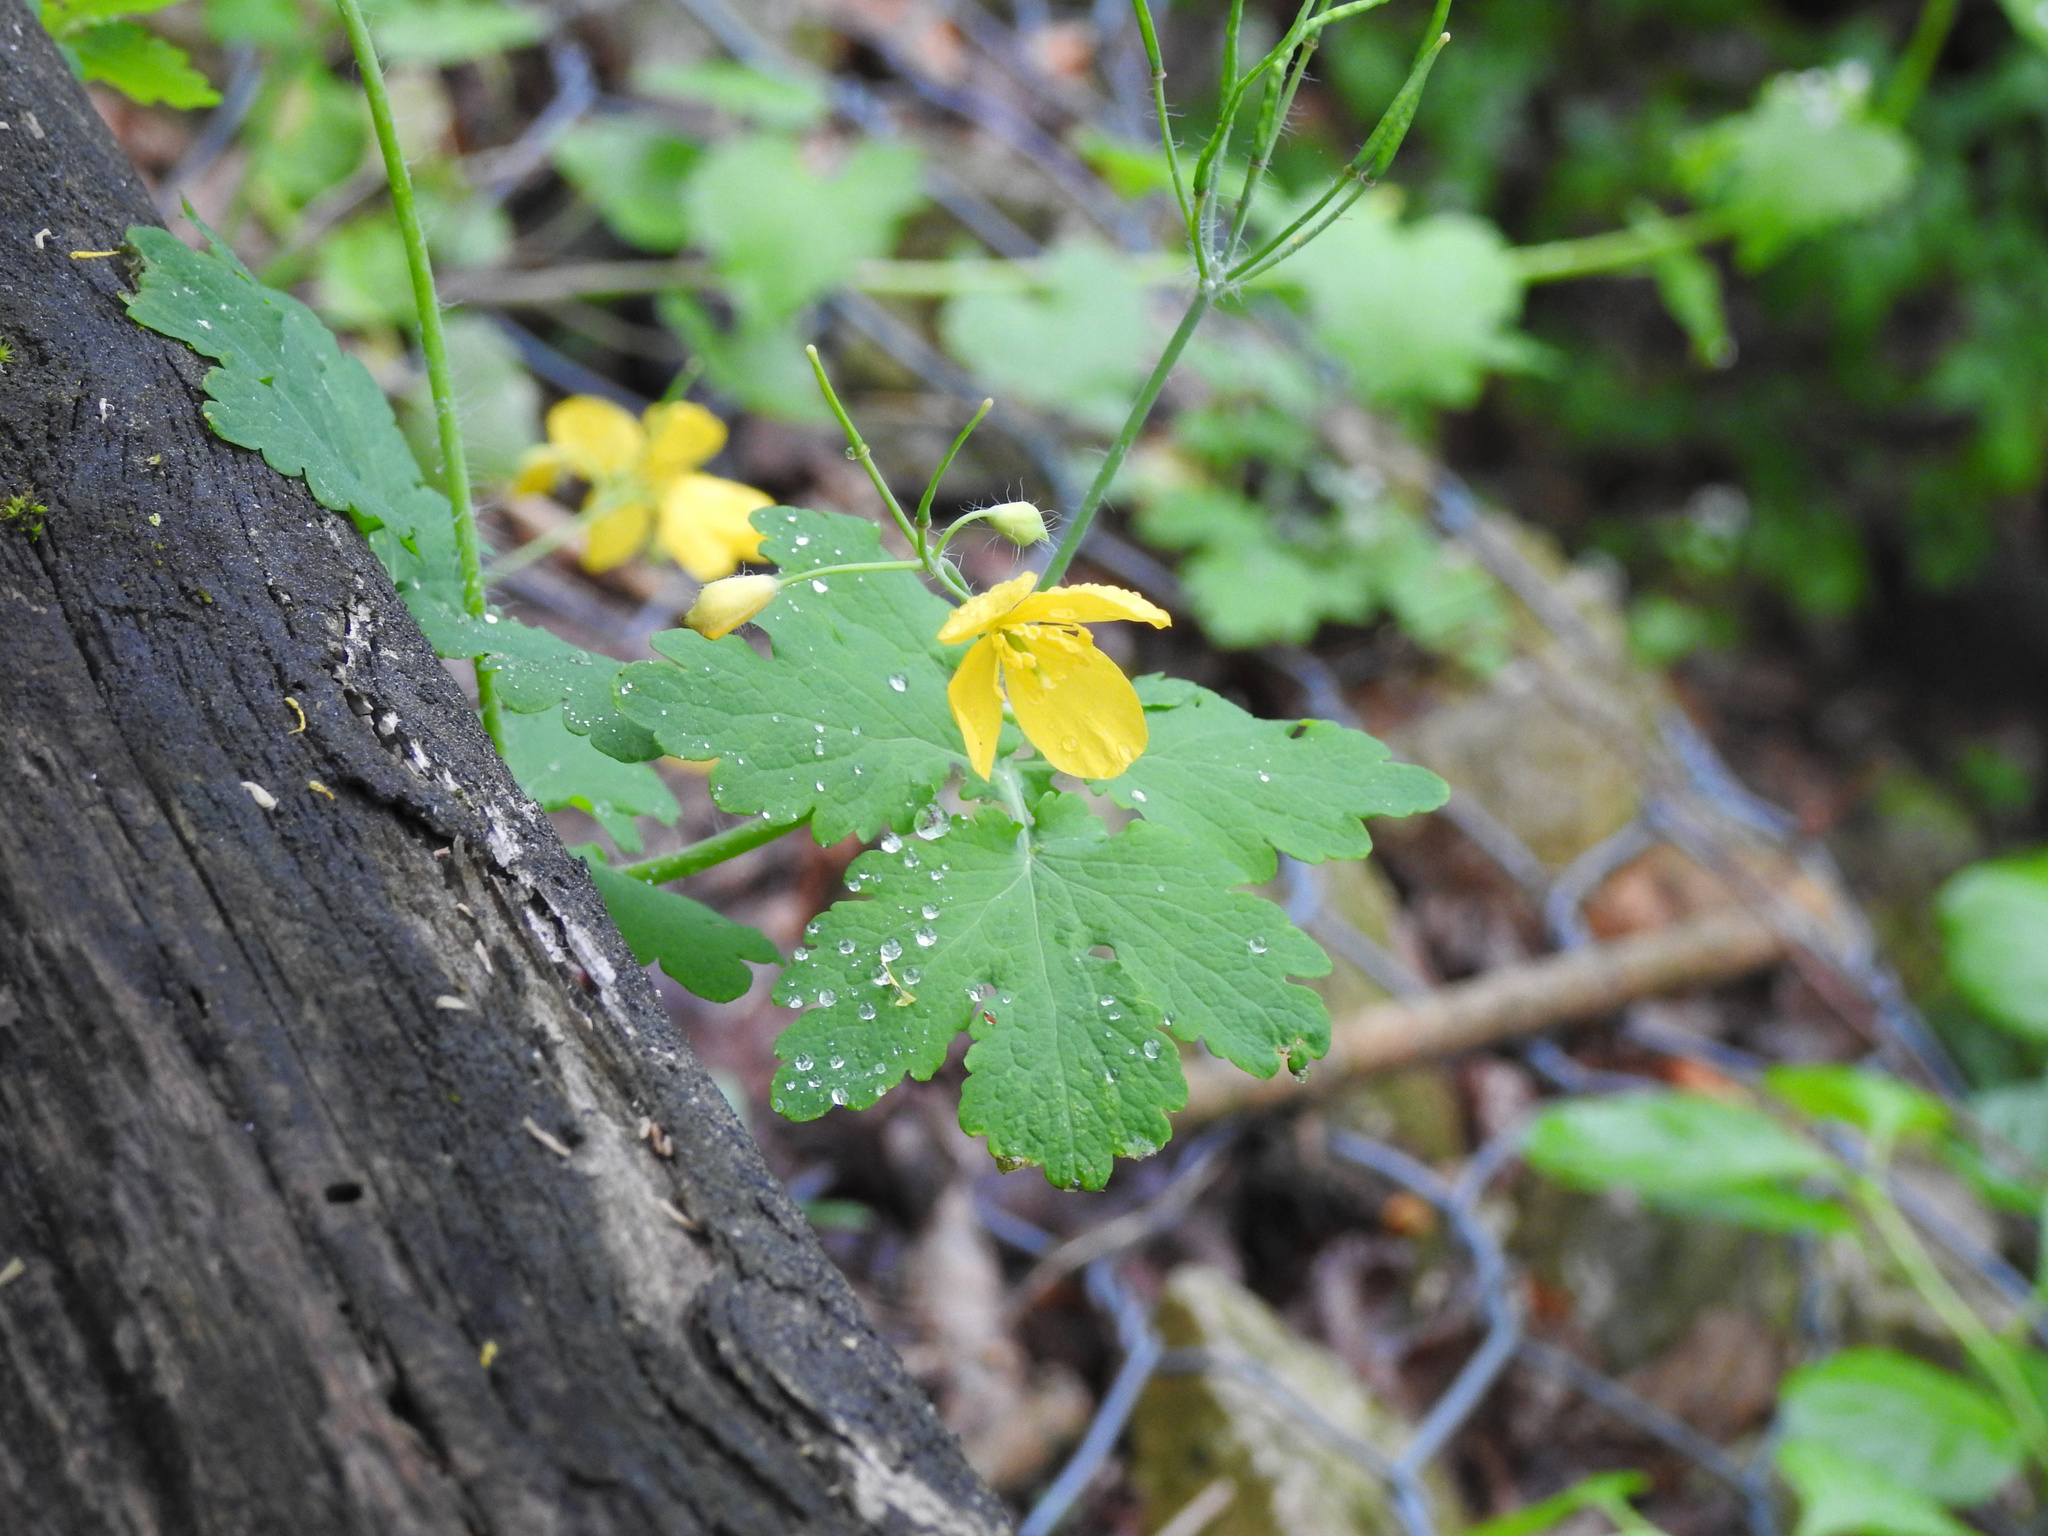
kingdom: Plantae
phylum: Tracheophyta
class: Magnoliopsida
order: Ranunculales
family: Papaveraceae
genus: Chelidonium
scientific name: Chelidonium majus
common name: Greater celandine
